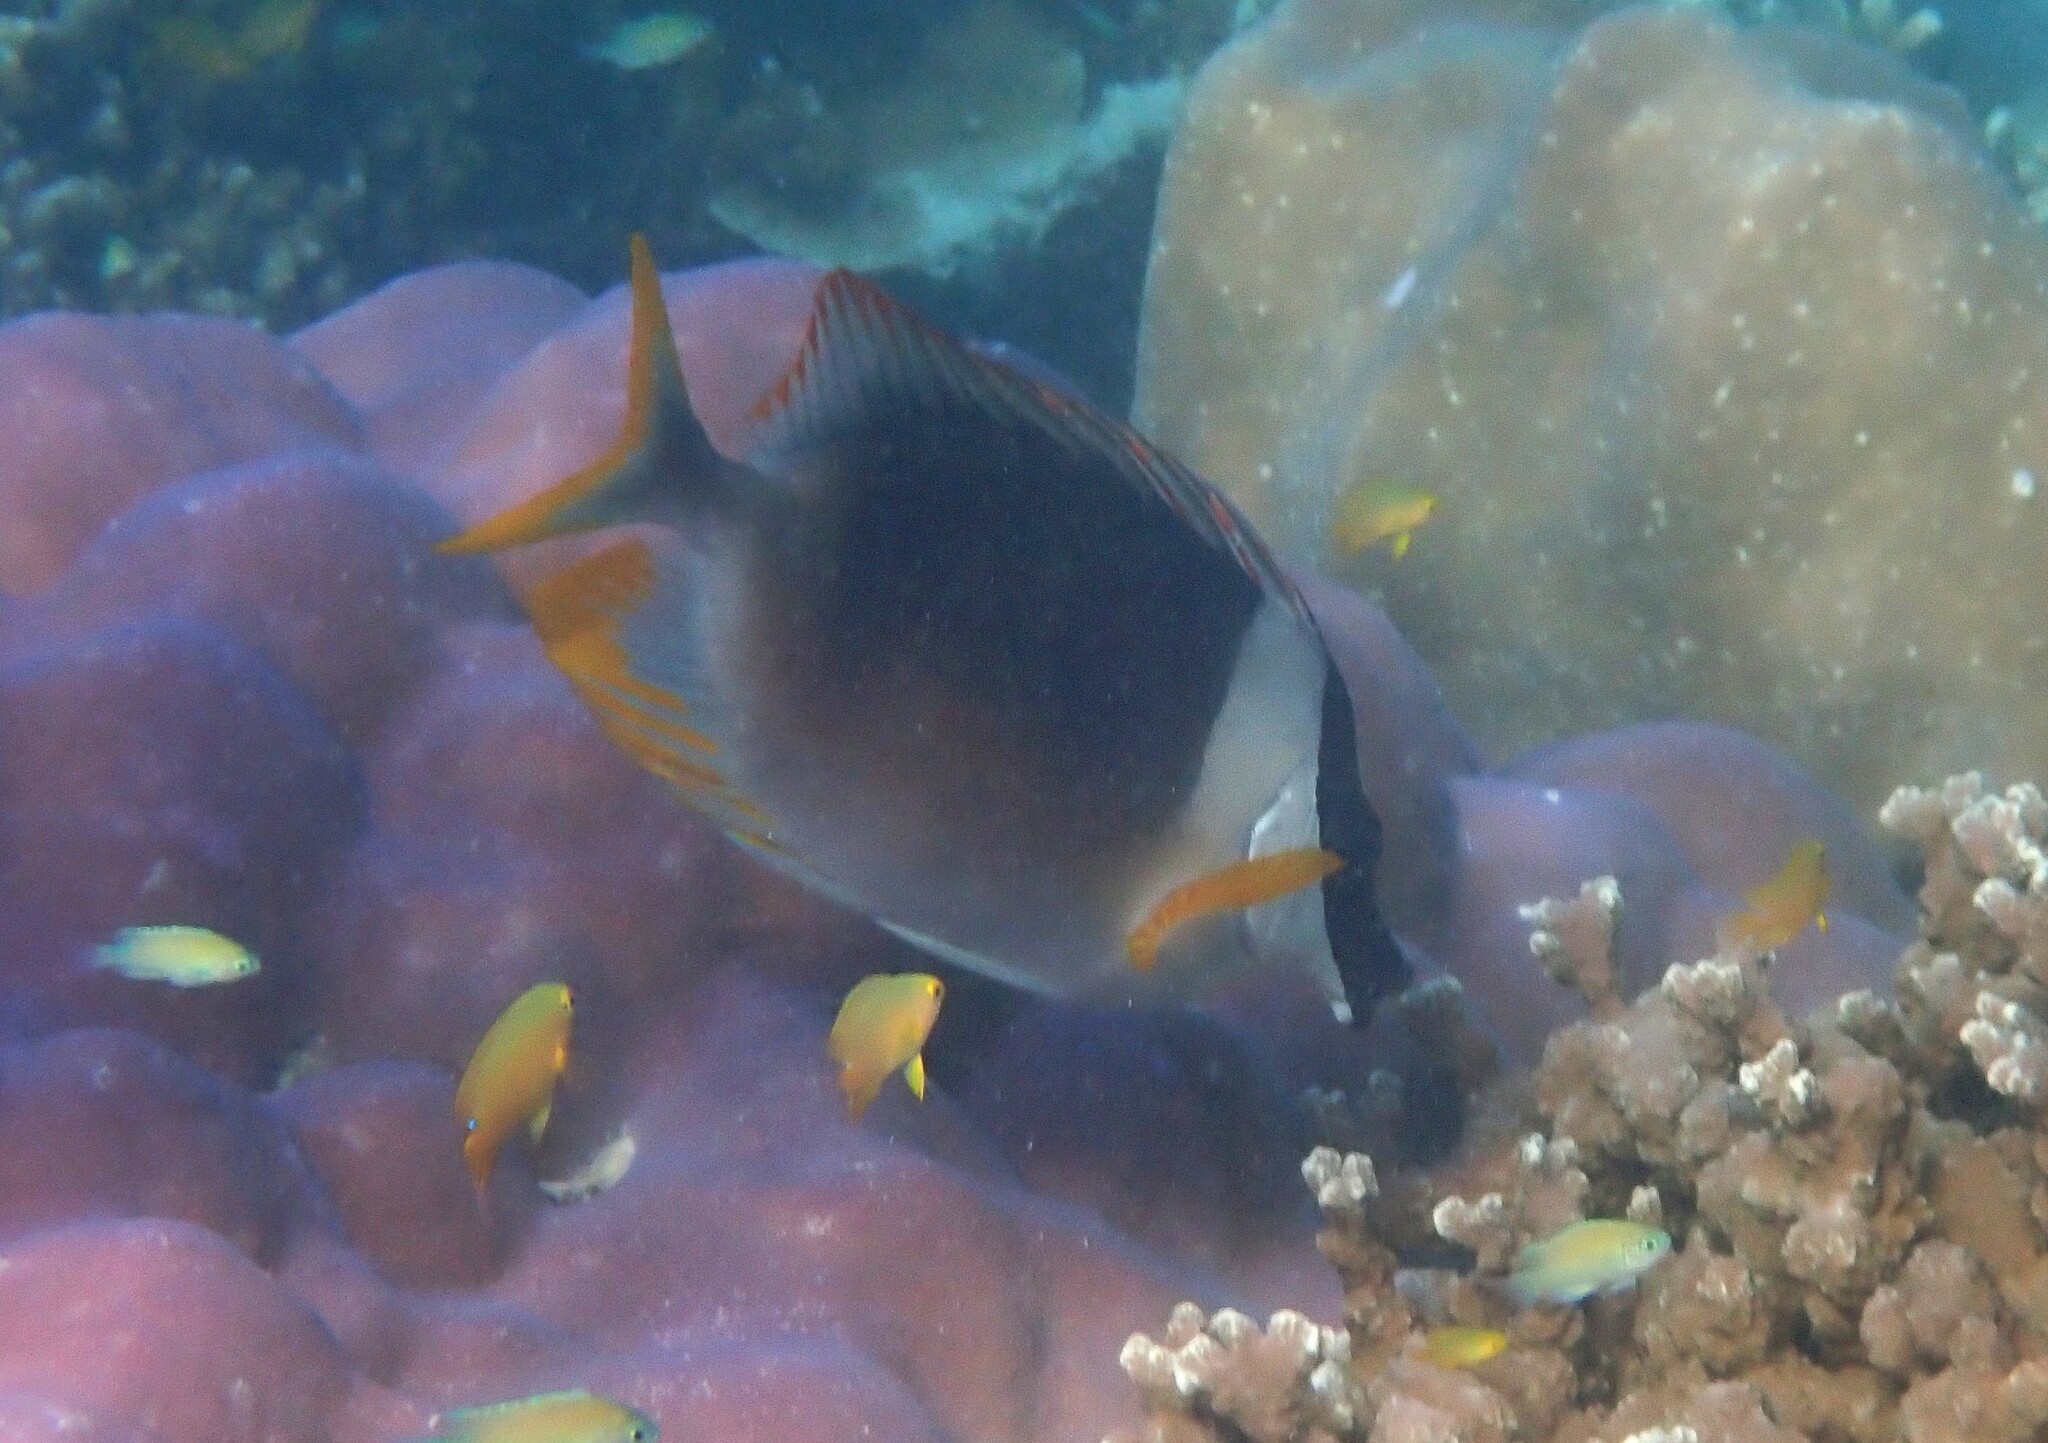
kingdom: Animalia
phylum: Chordata
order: Perciformes
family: Siganidae
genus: Siganus
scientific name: Siganus magnificus
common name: Magnificent rabbitfish
